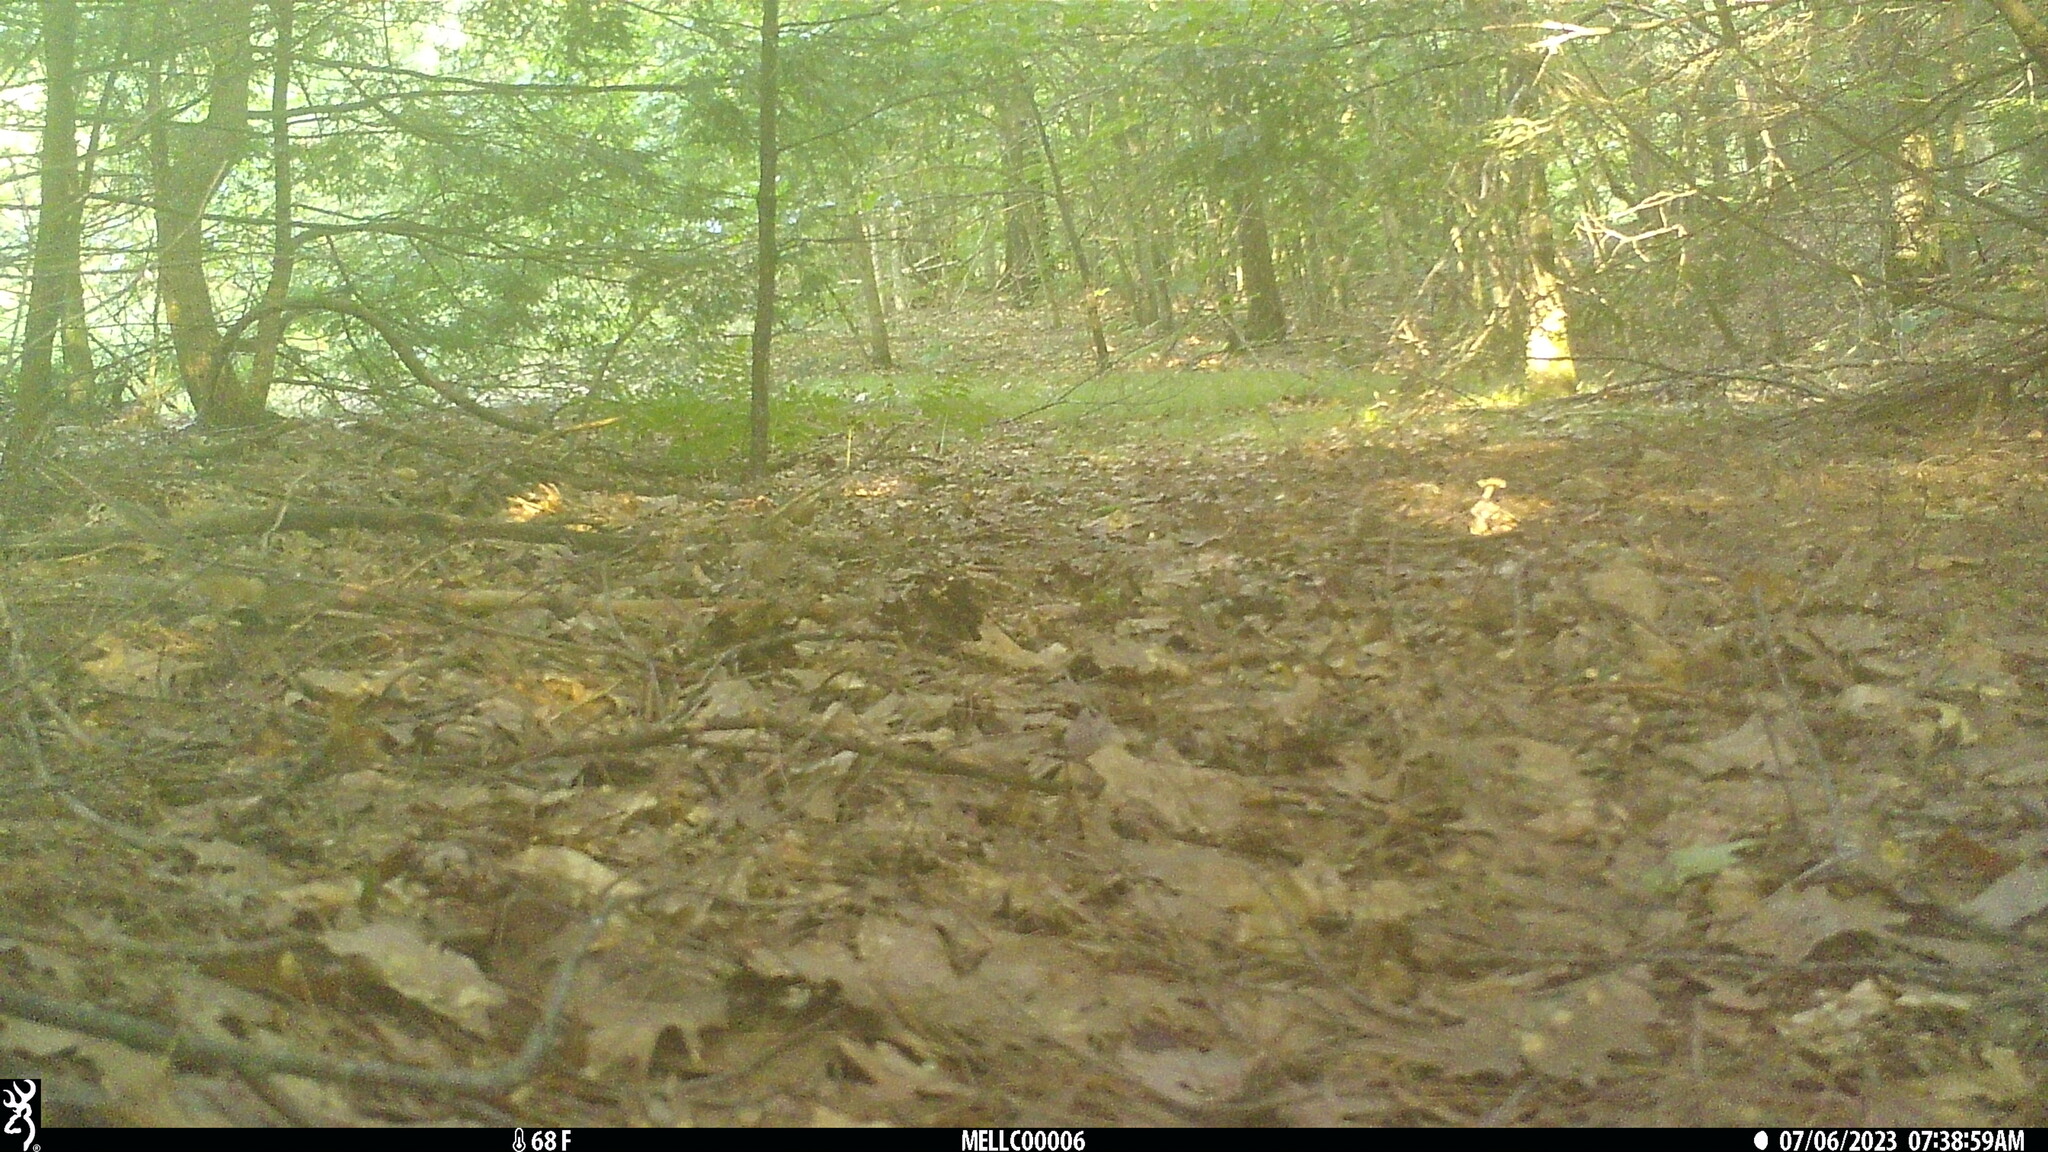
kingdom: Animalia
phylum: Chordata
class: Mammalia
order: Rodentia
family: Sciuridae
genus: Tamias
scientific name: Tamias striatus
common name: Eastern chipmunk
